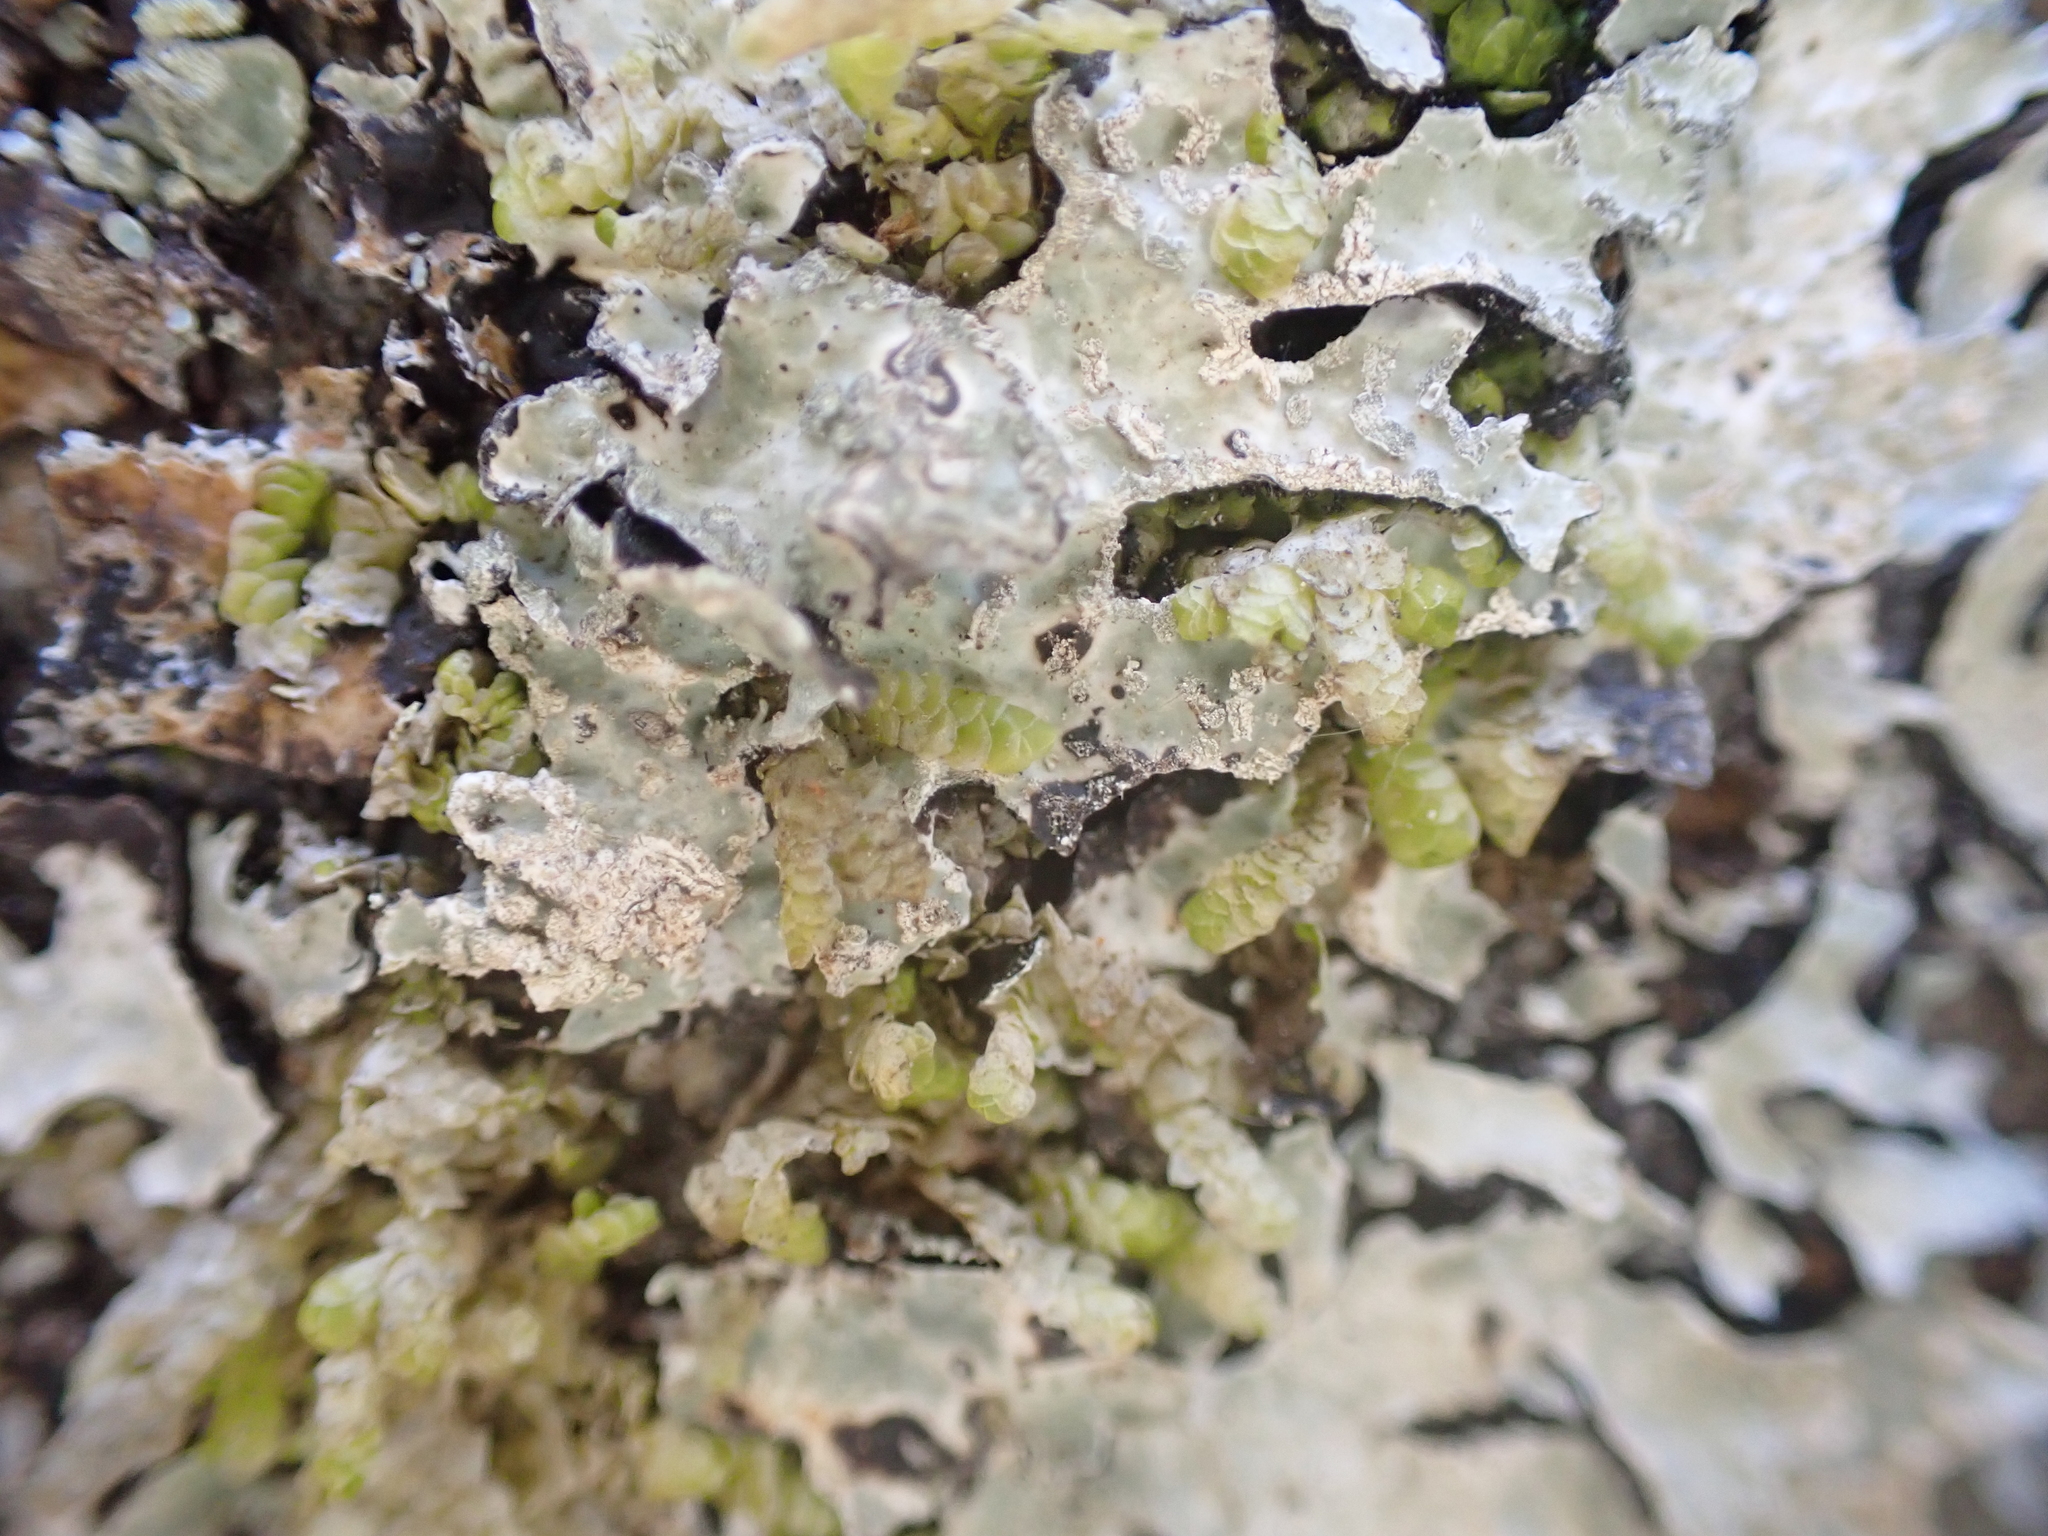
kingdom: Fungi
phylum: Ascomycota
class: Lecanoromycetes
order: Lecanorales
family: Parmeliaceae
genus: Parmelia
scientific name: Parmelia sulcata
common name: Netted shield lichen
